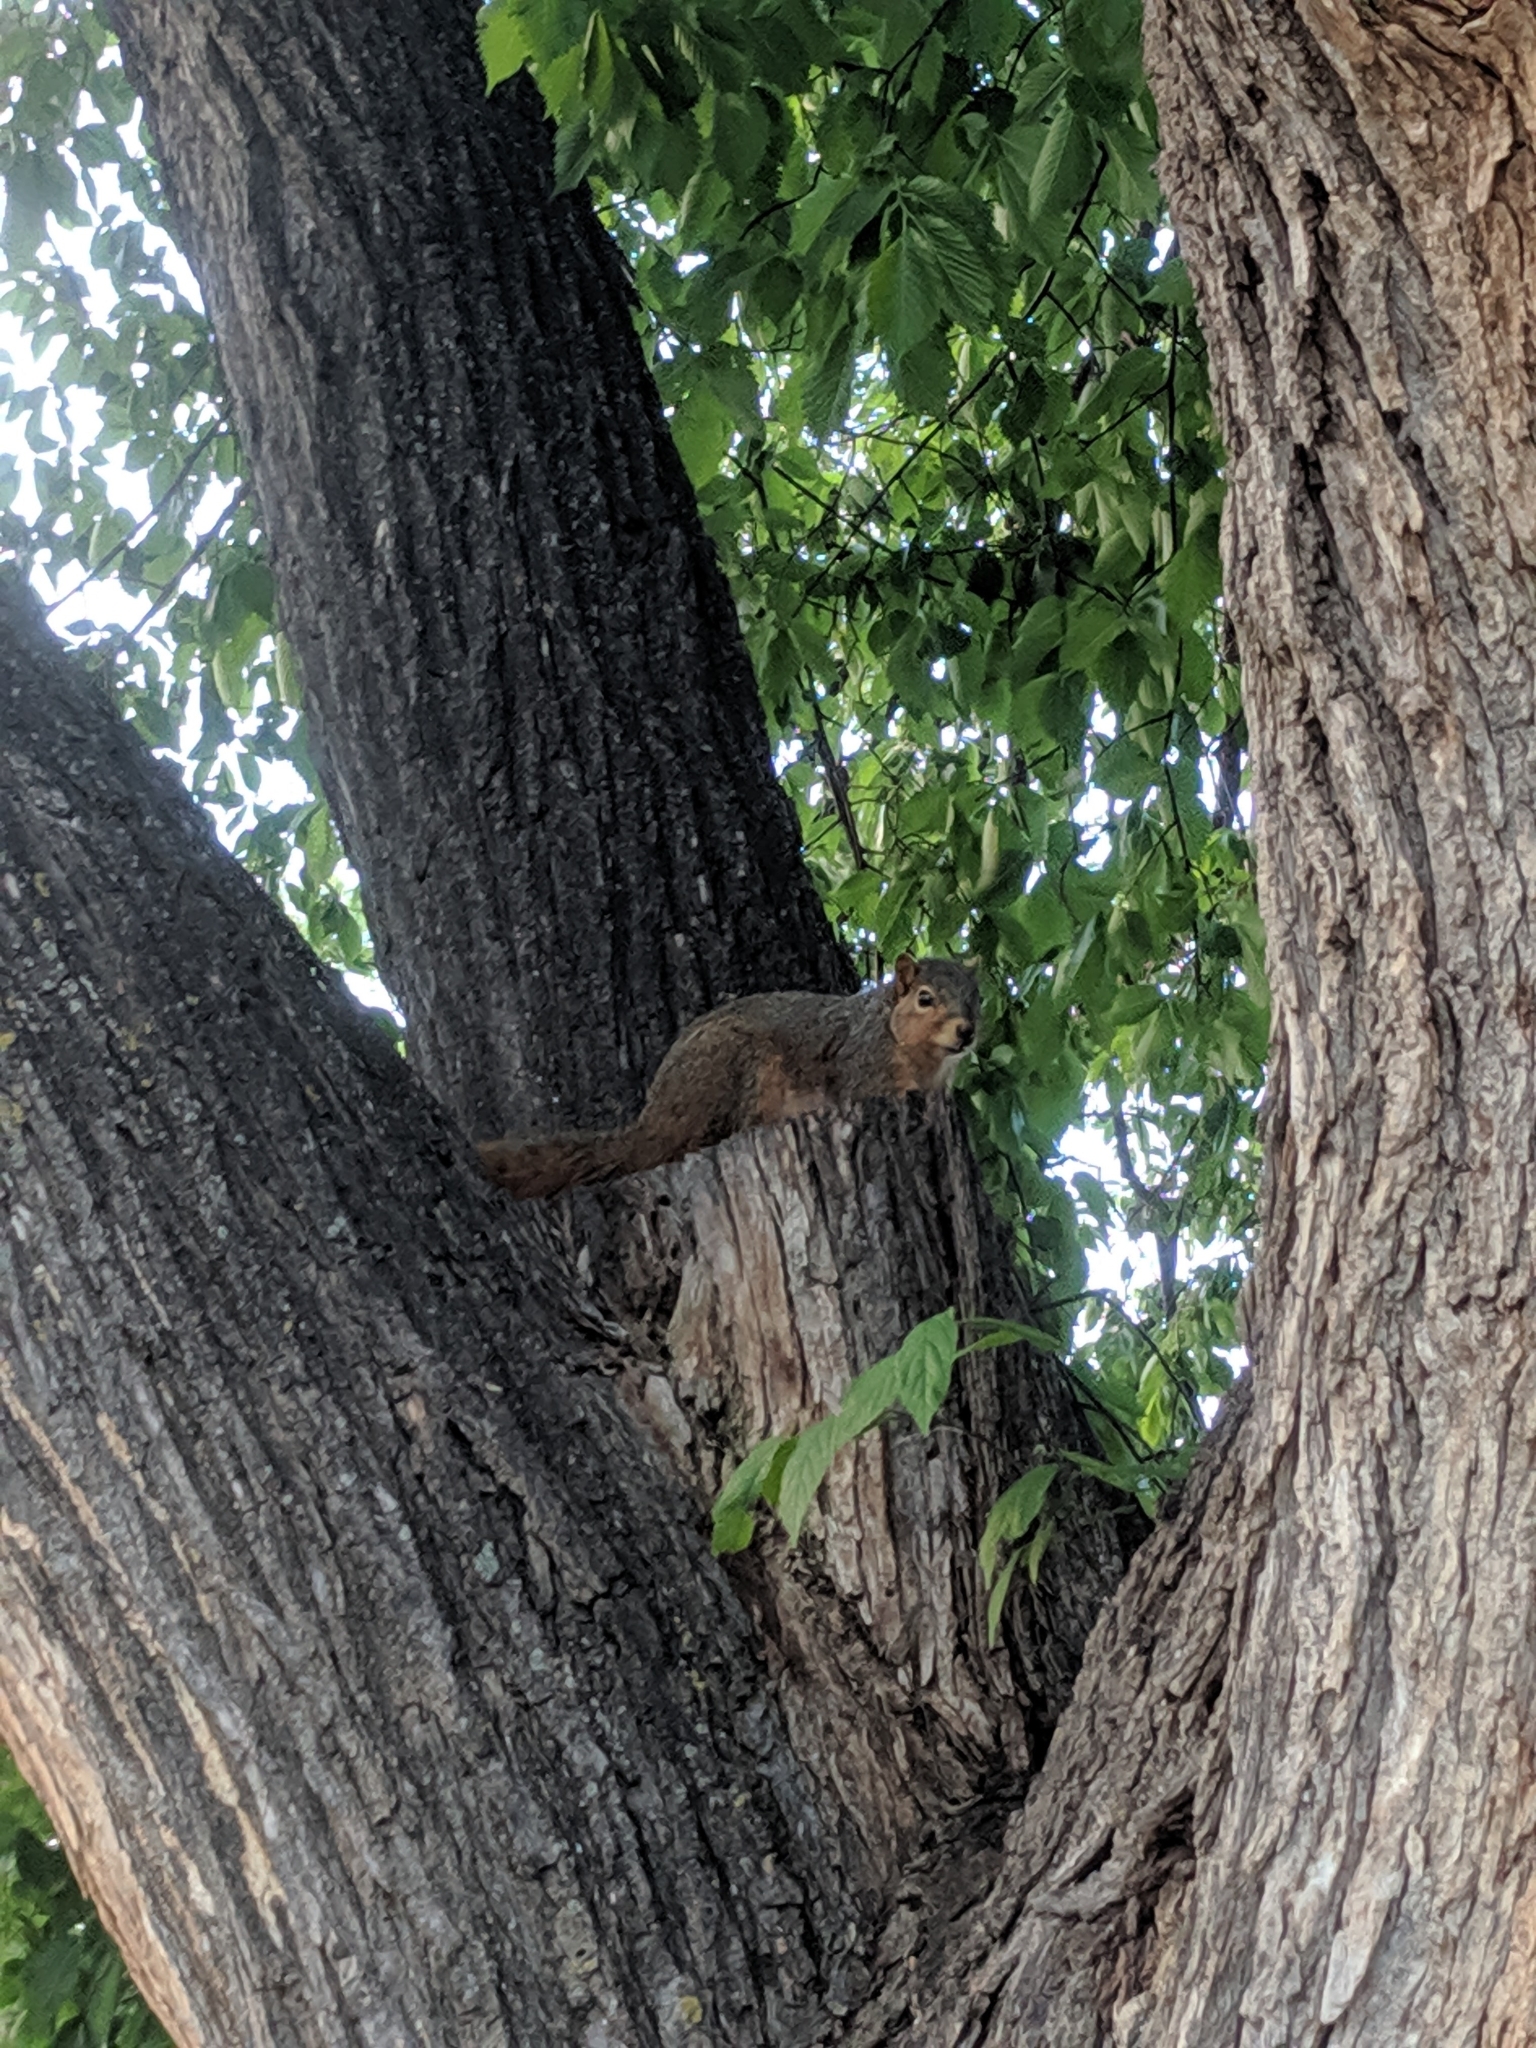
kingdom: Animalia
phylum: Chordata
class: Mammalia
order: Rodentia
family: Sciuridae
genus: Sciurus
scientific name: Sciurus niger
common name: Fox squirrel
